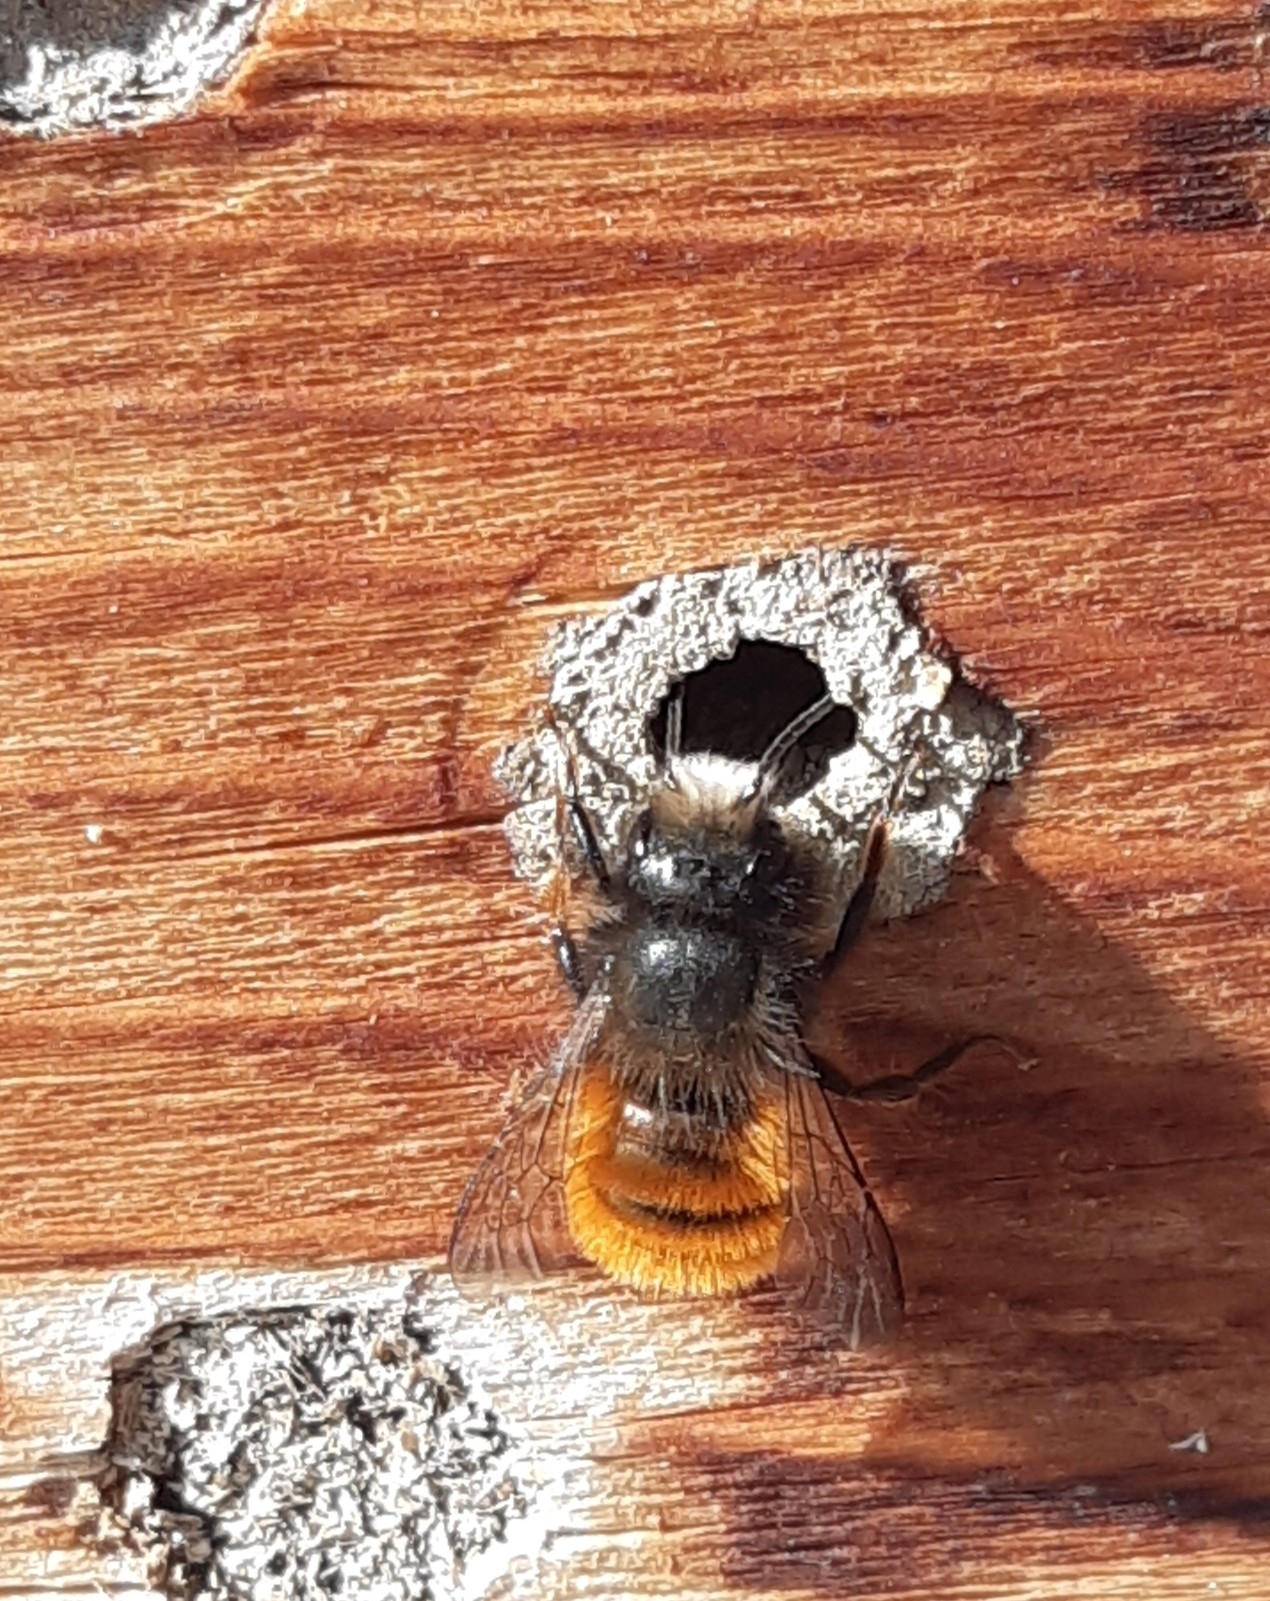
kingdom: Animalia
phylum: Arthropoda
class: Insecta
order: Hymenoptera
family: Megachilidae
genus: Osmia
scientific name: Osmia cornuta
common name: Mason bee
